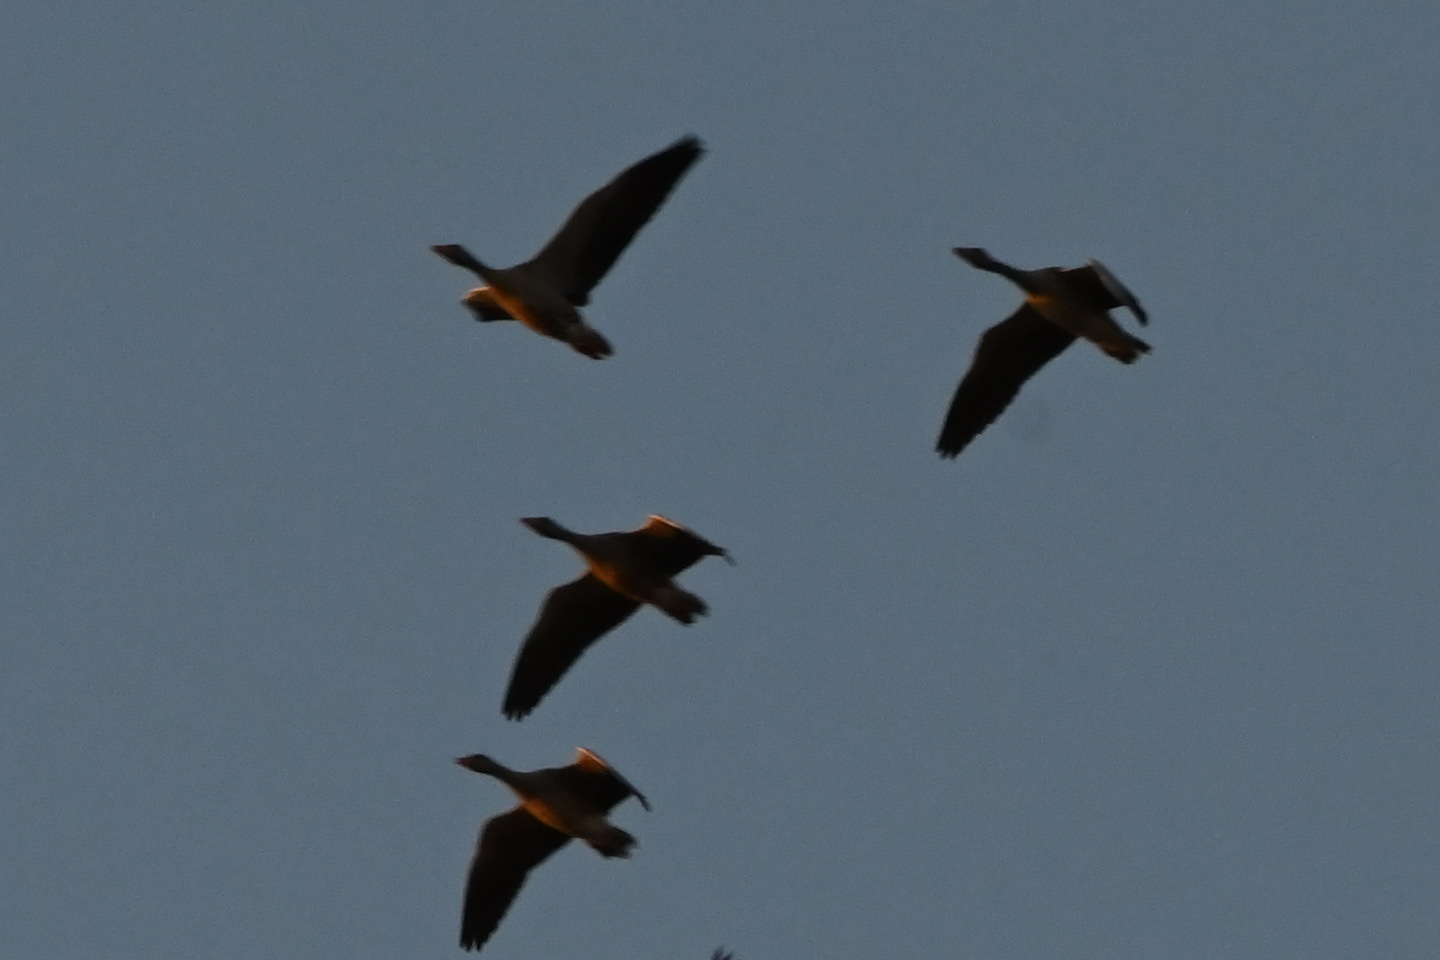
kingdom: Animalia
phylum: Chordata
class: Aves
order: Anseriformes
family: Anatidae
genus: Anser
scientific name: Anser albifrons
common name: Greater white-fronted goose
